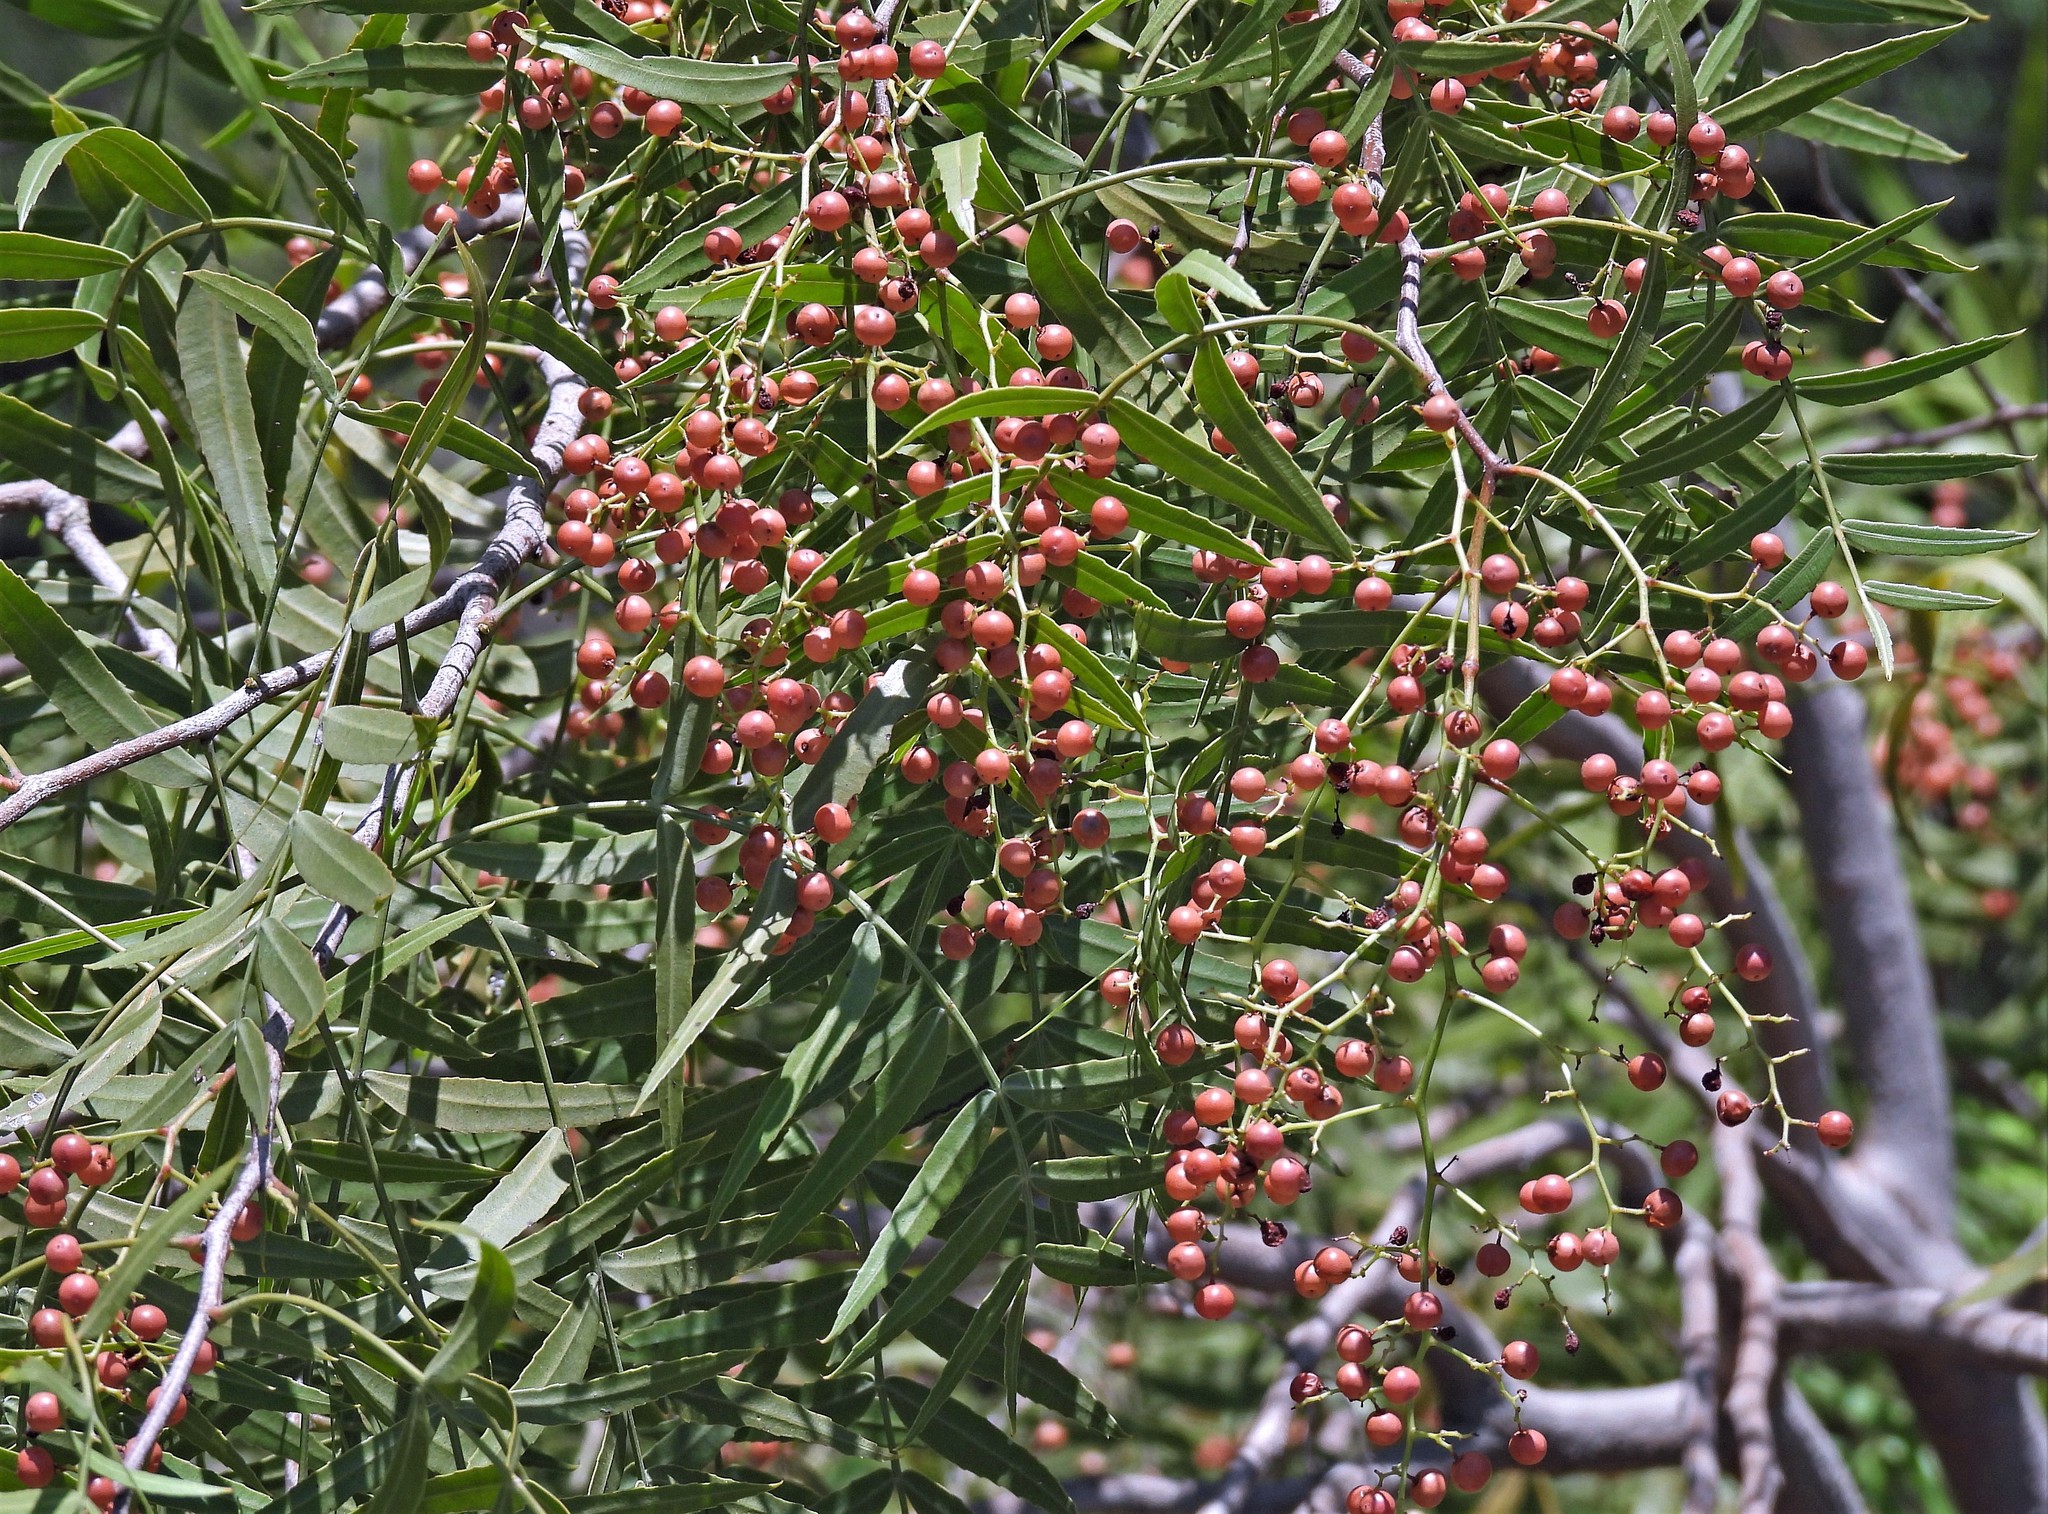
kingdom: Plantae
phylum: Tracheophyta
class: Magnoliopsida
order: Sapindales
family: Anacardiaceae
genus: Schinus
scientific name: Schinus molle
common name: Peruvian peppertree
